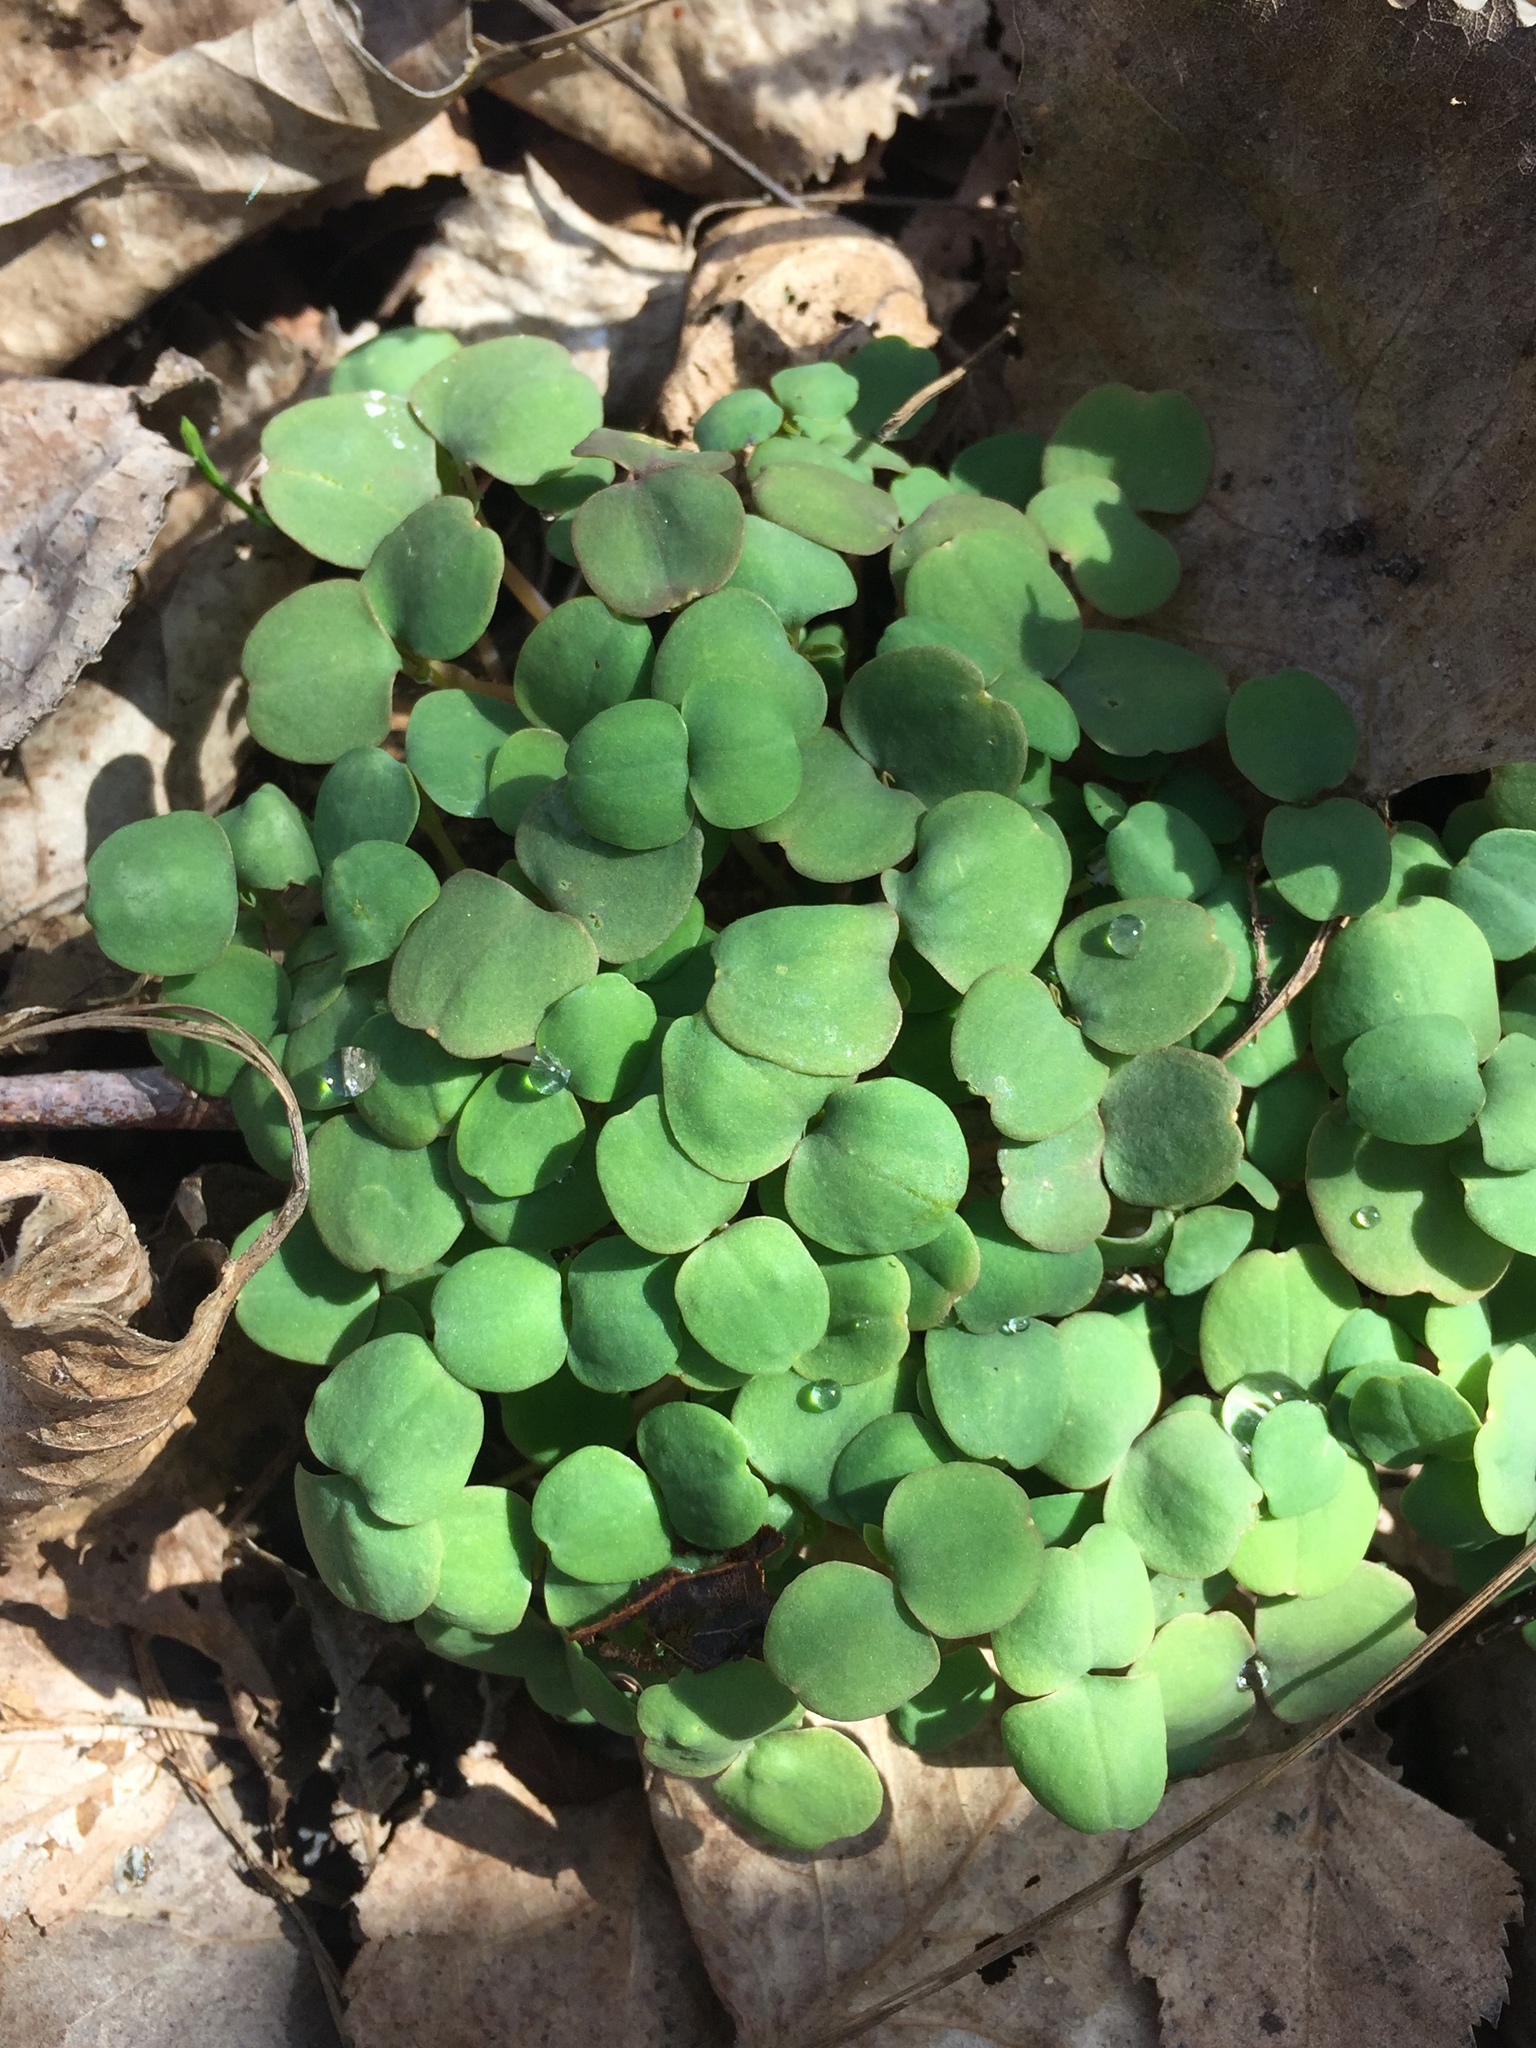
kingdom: Plantae
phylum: Tracheophyta
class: Magnoliopsida
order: Ericales
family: Balsaminaceae
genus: Impatiens
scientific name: Impatiens capensis
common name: Orange balsam
